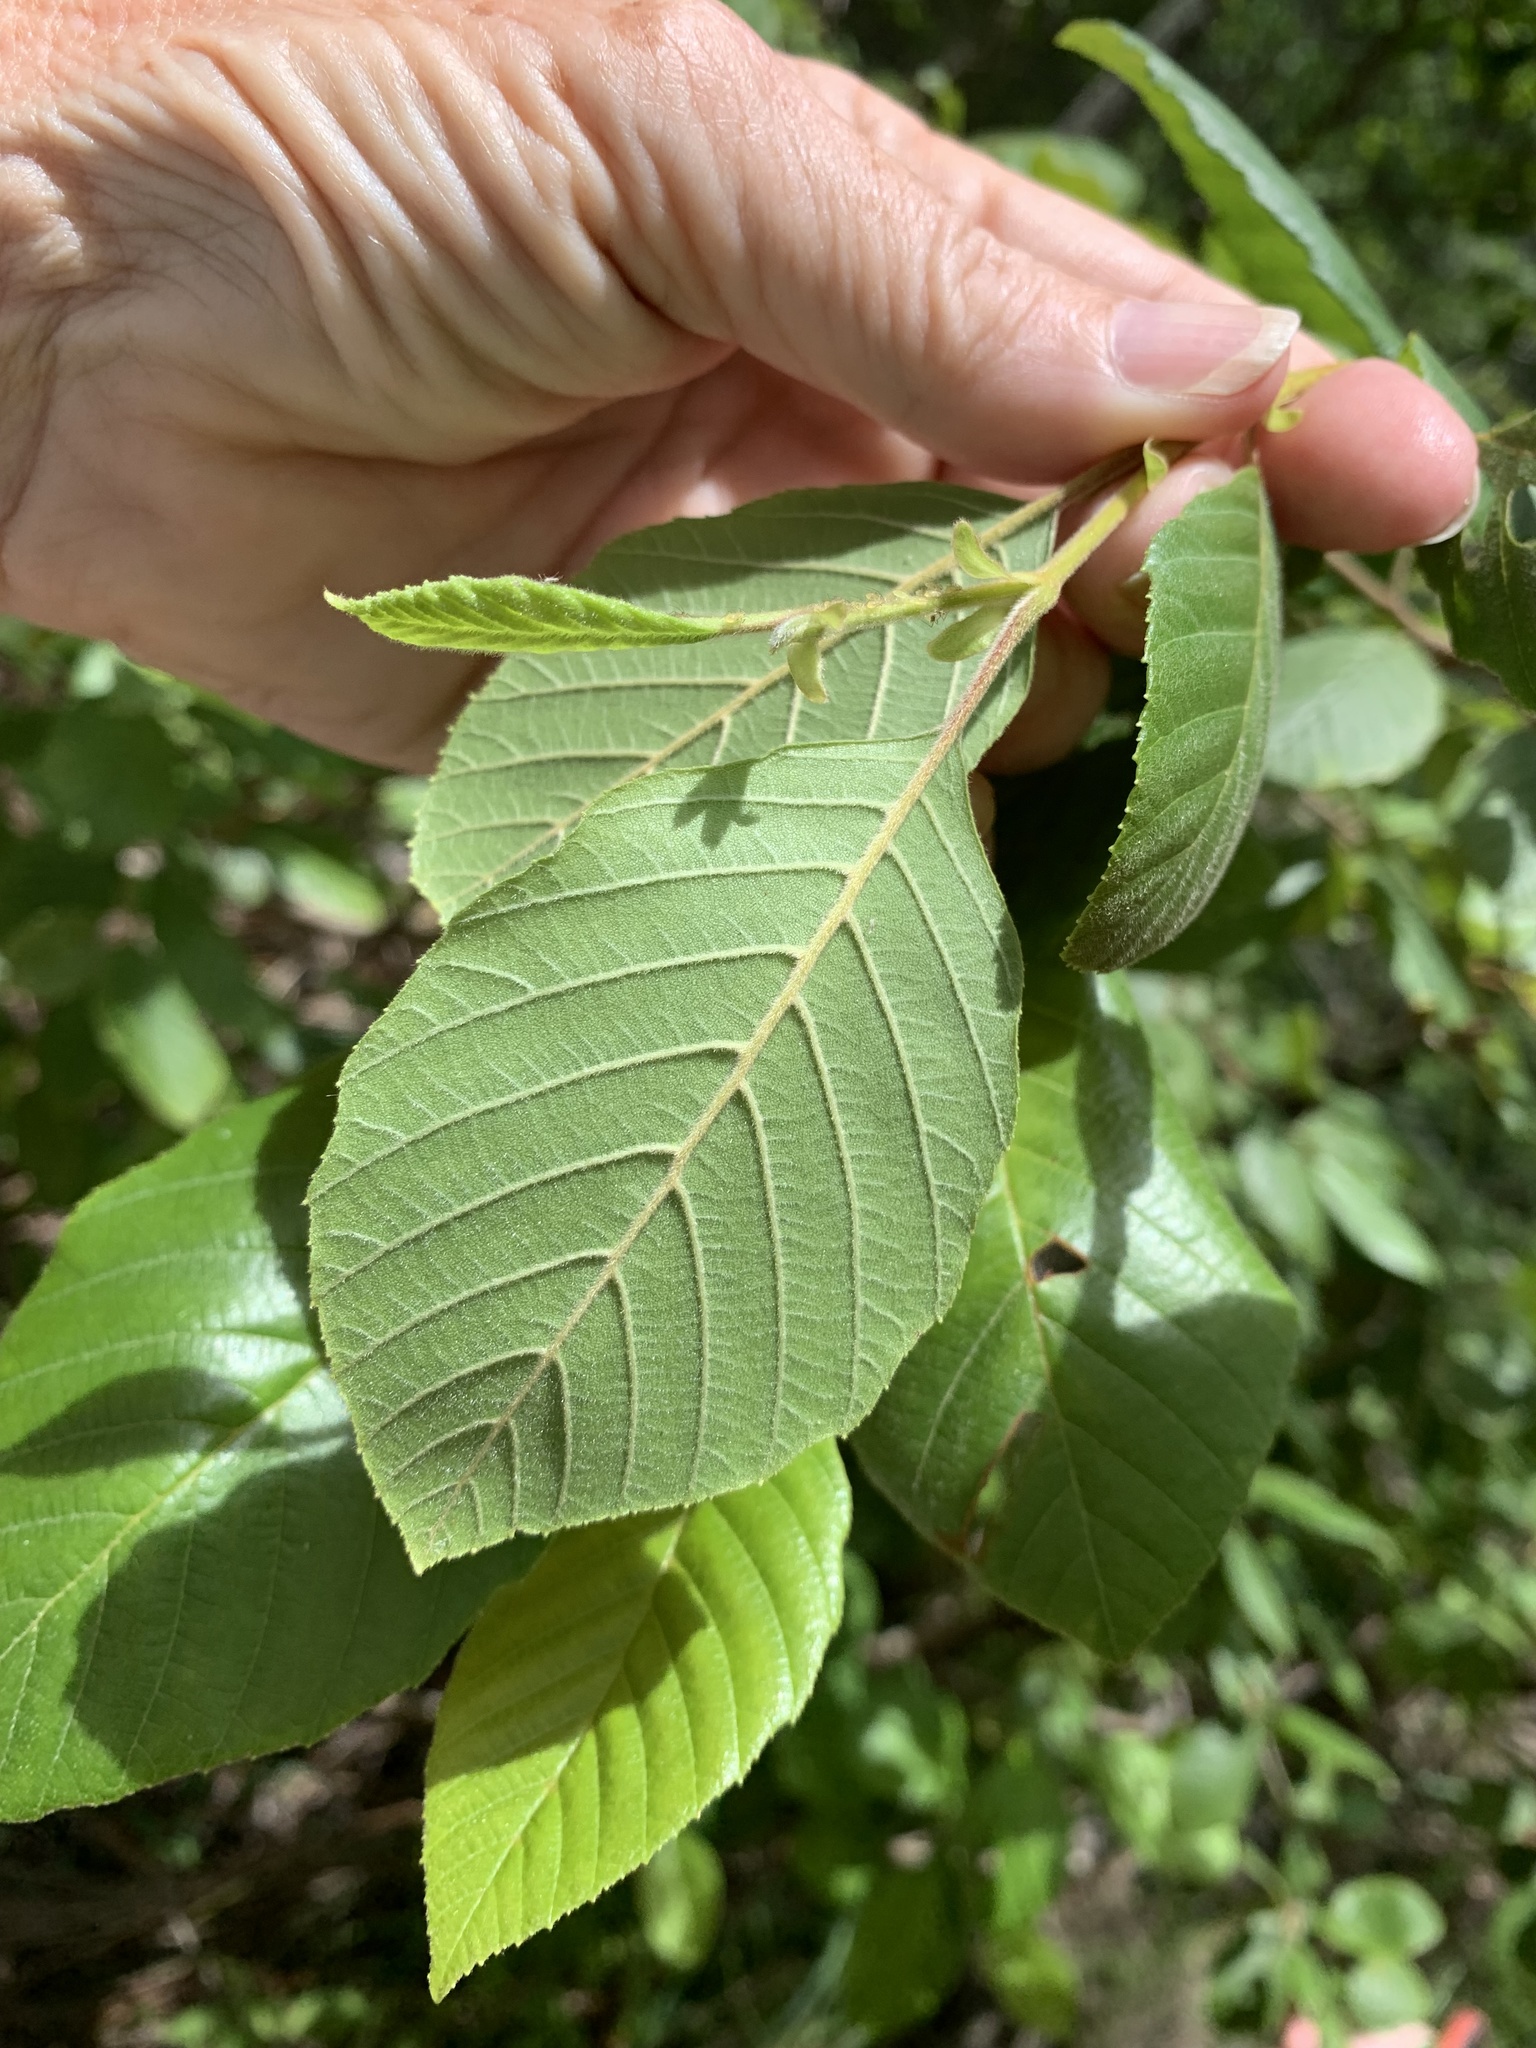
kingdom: Plantae
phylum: Tracheophyta
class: Magnoliopsida
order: Fagales
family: Betulaceae
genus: Alnus
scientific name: Alnus serrulata
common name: Hazel alder
